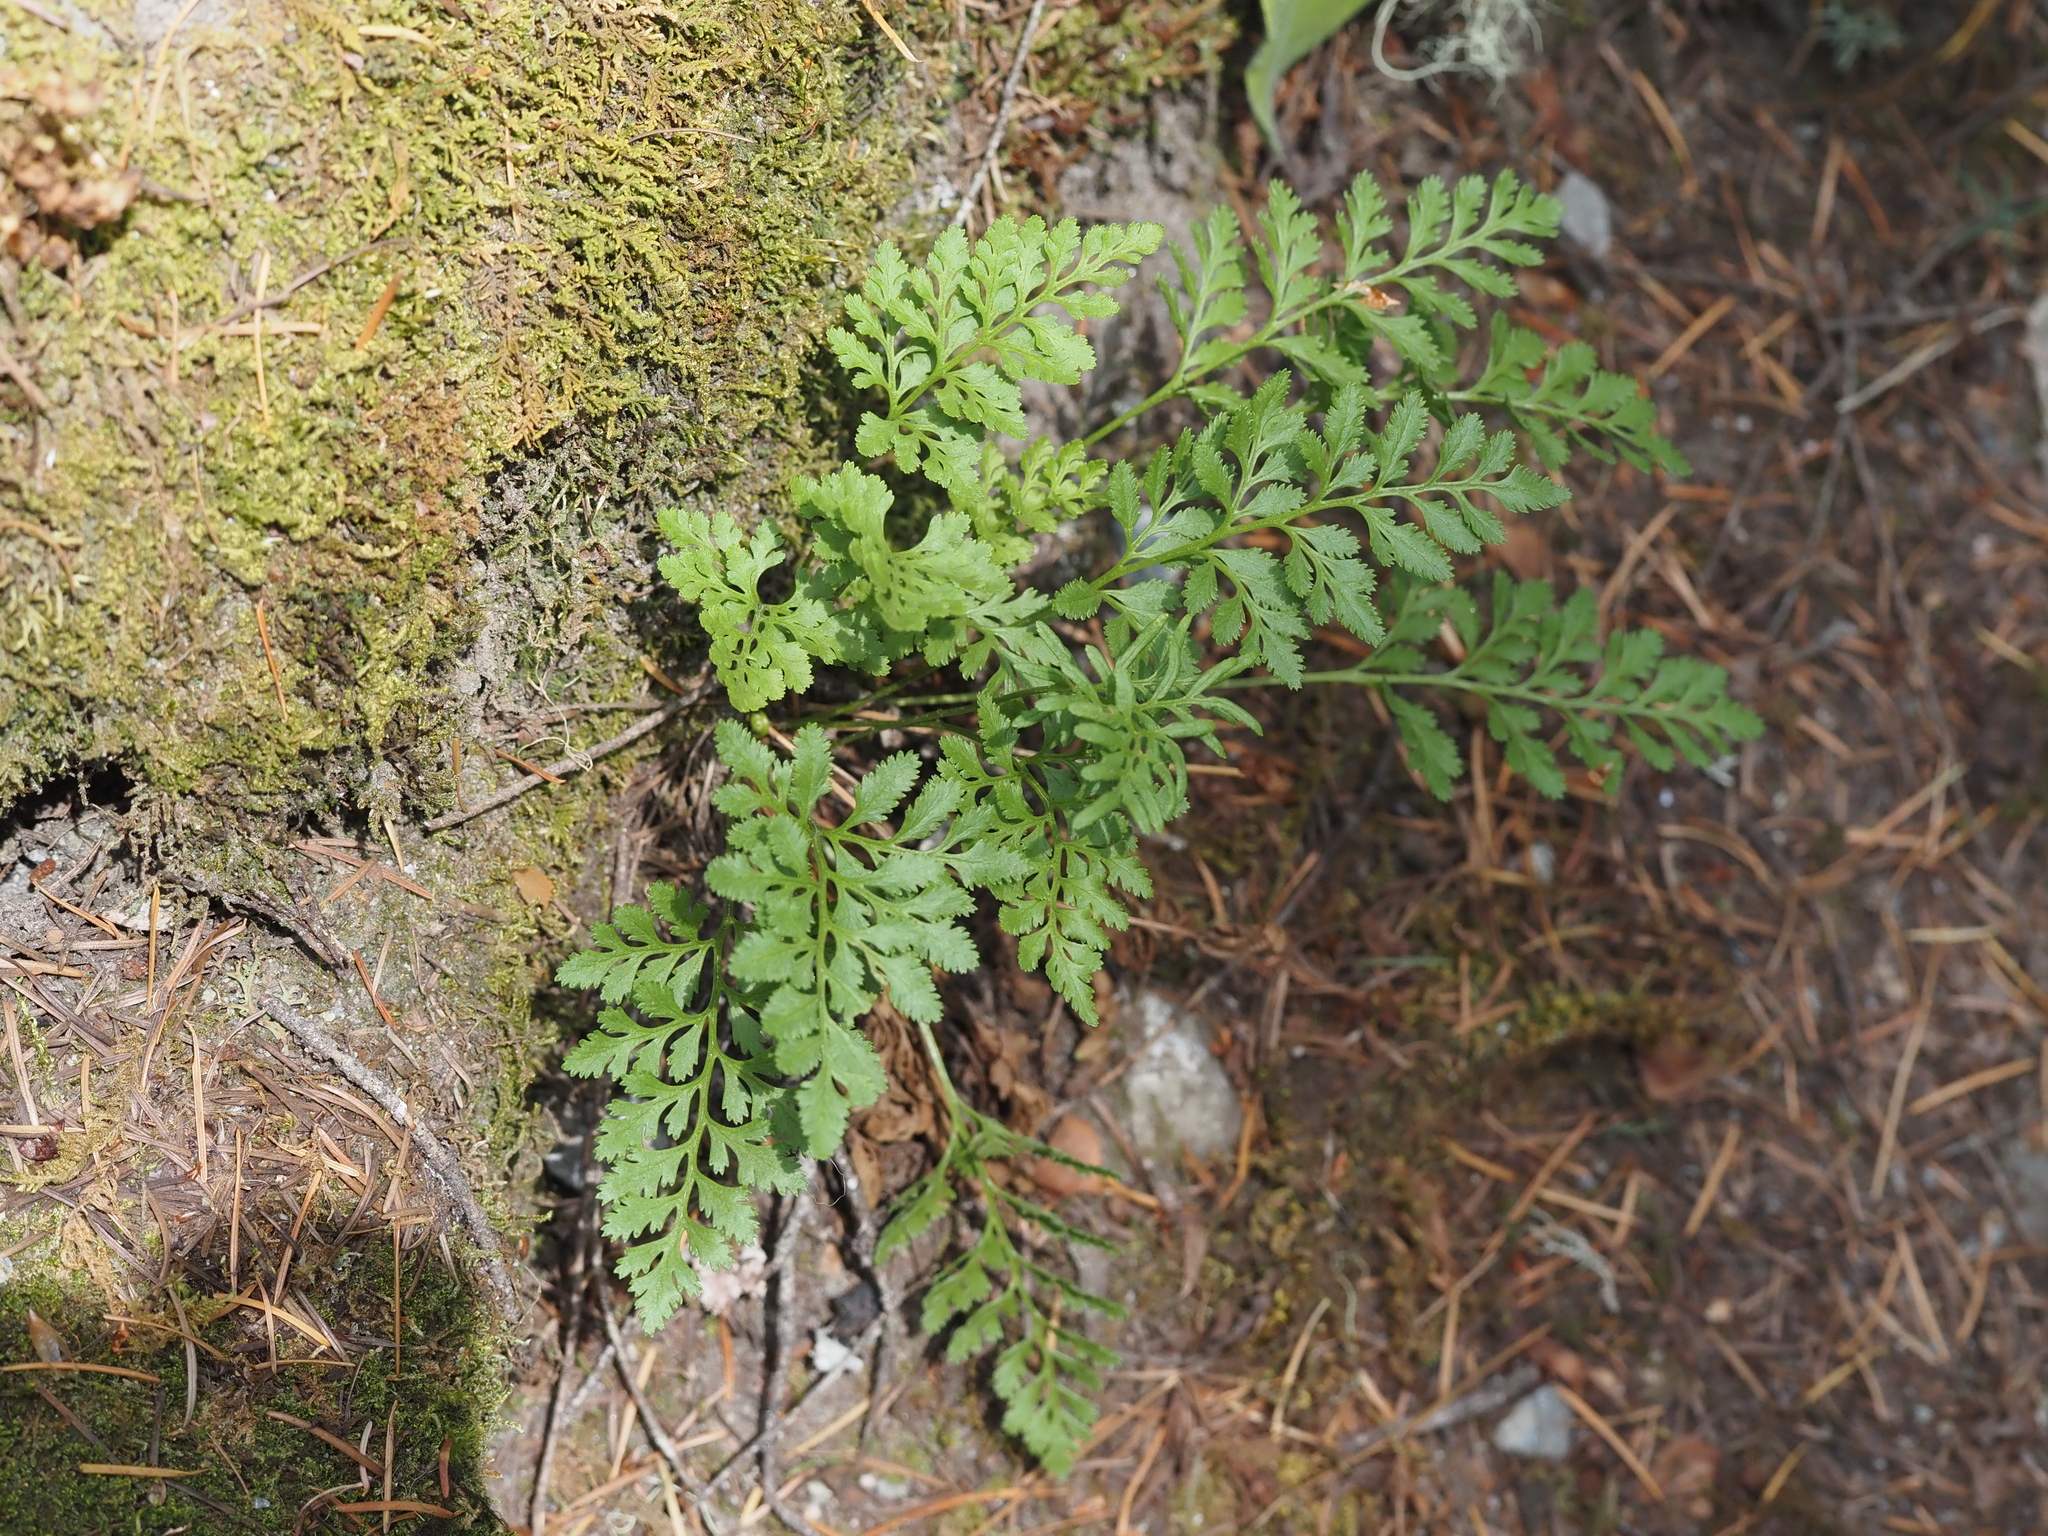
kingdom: Plantae
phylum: Tracheophyta
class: Polypodiopsida
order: Polypodiales
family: Pteridaceae
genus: Cryptogramma
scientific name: Cryptogramma acrostichoides
